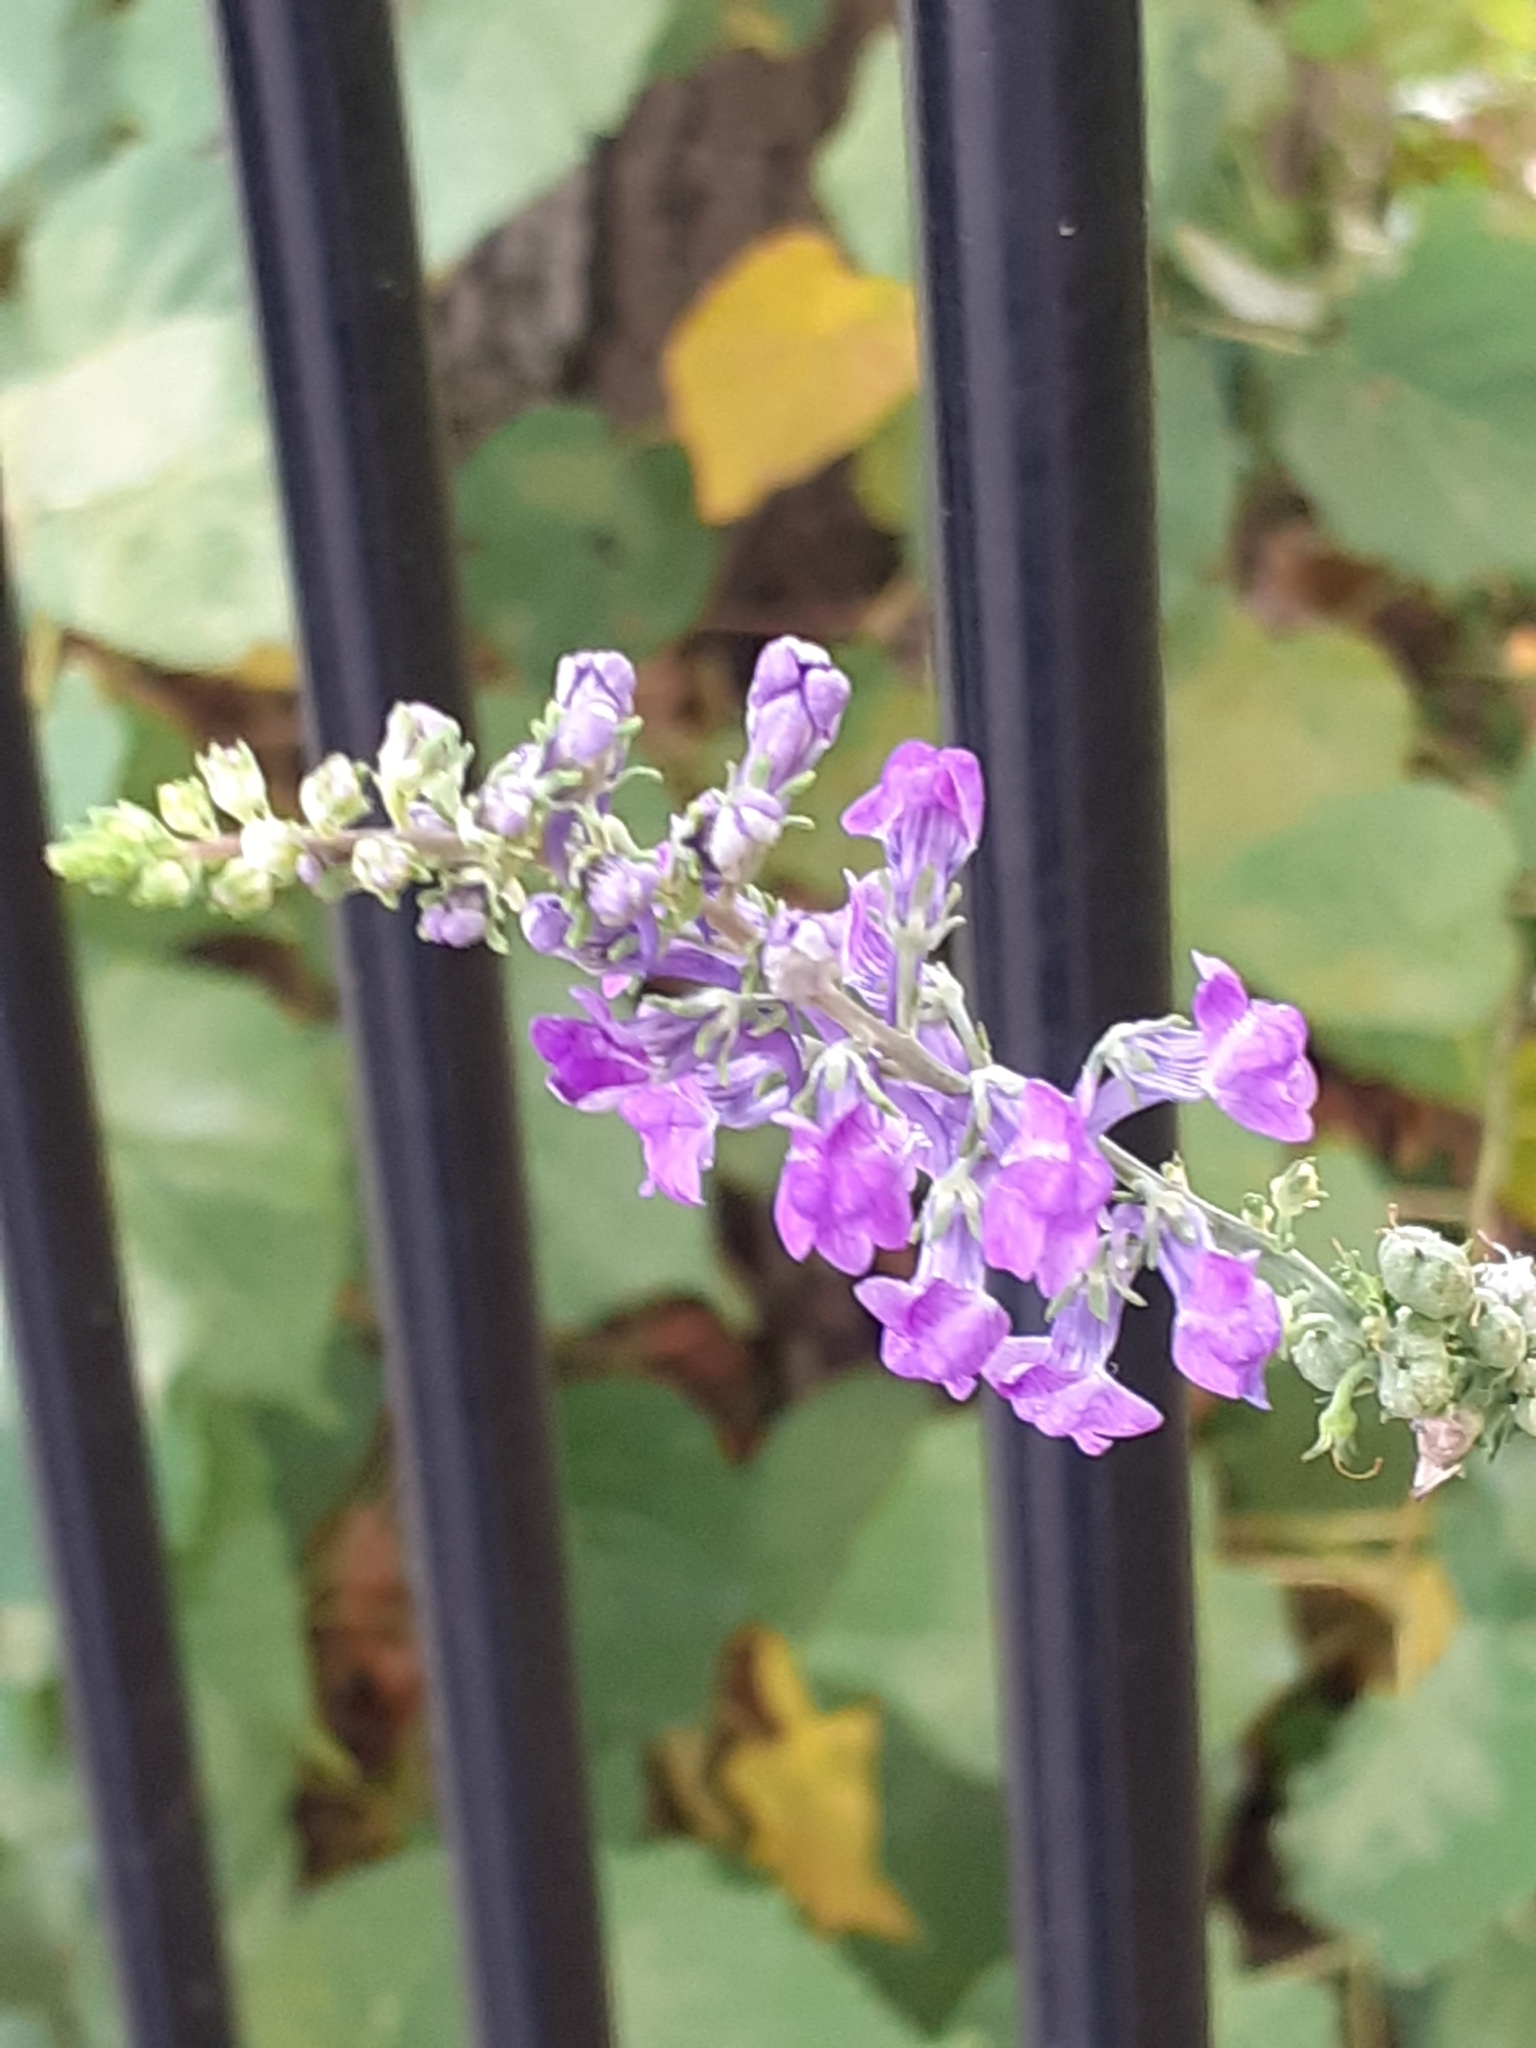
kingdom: Plantae
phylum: Tracheophyta
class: Magnoliopsida
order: Lamiales
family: Plantaginaceae
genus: Linaria
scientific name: Linaria purpurea
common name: Purple toadflax
